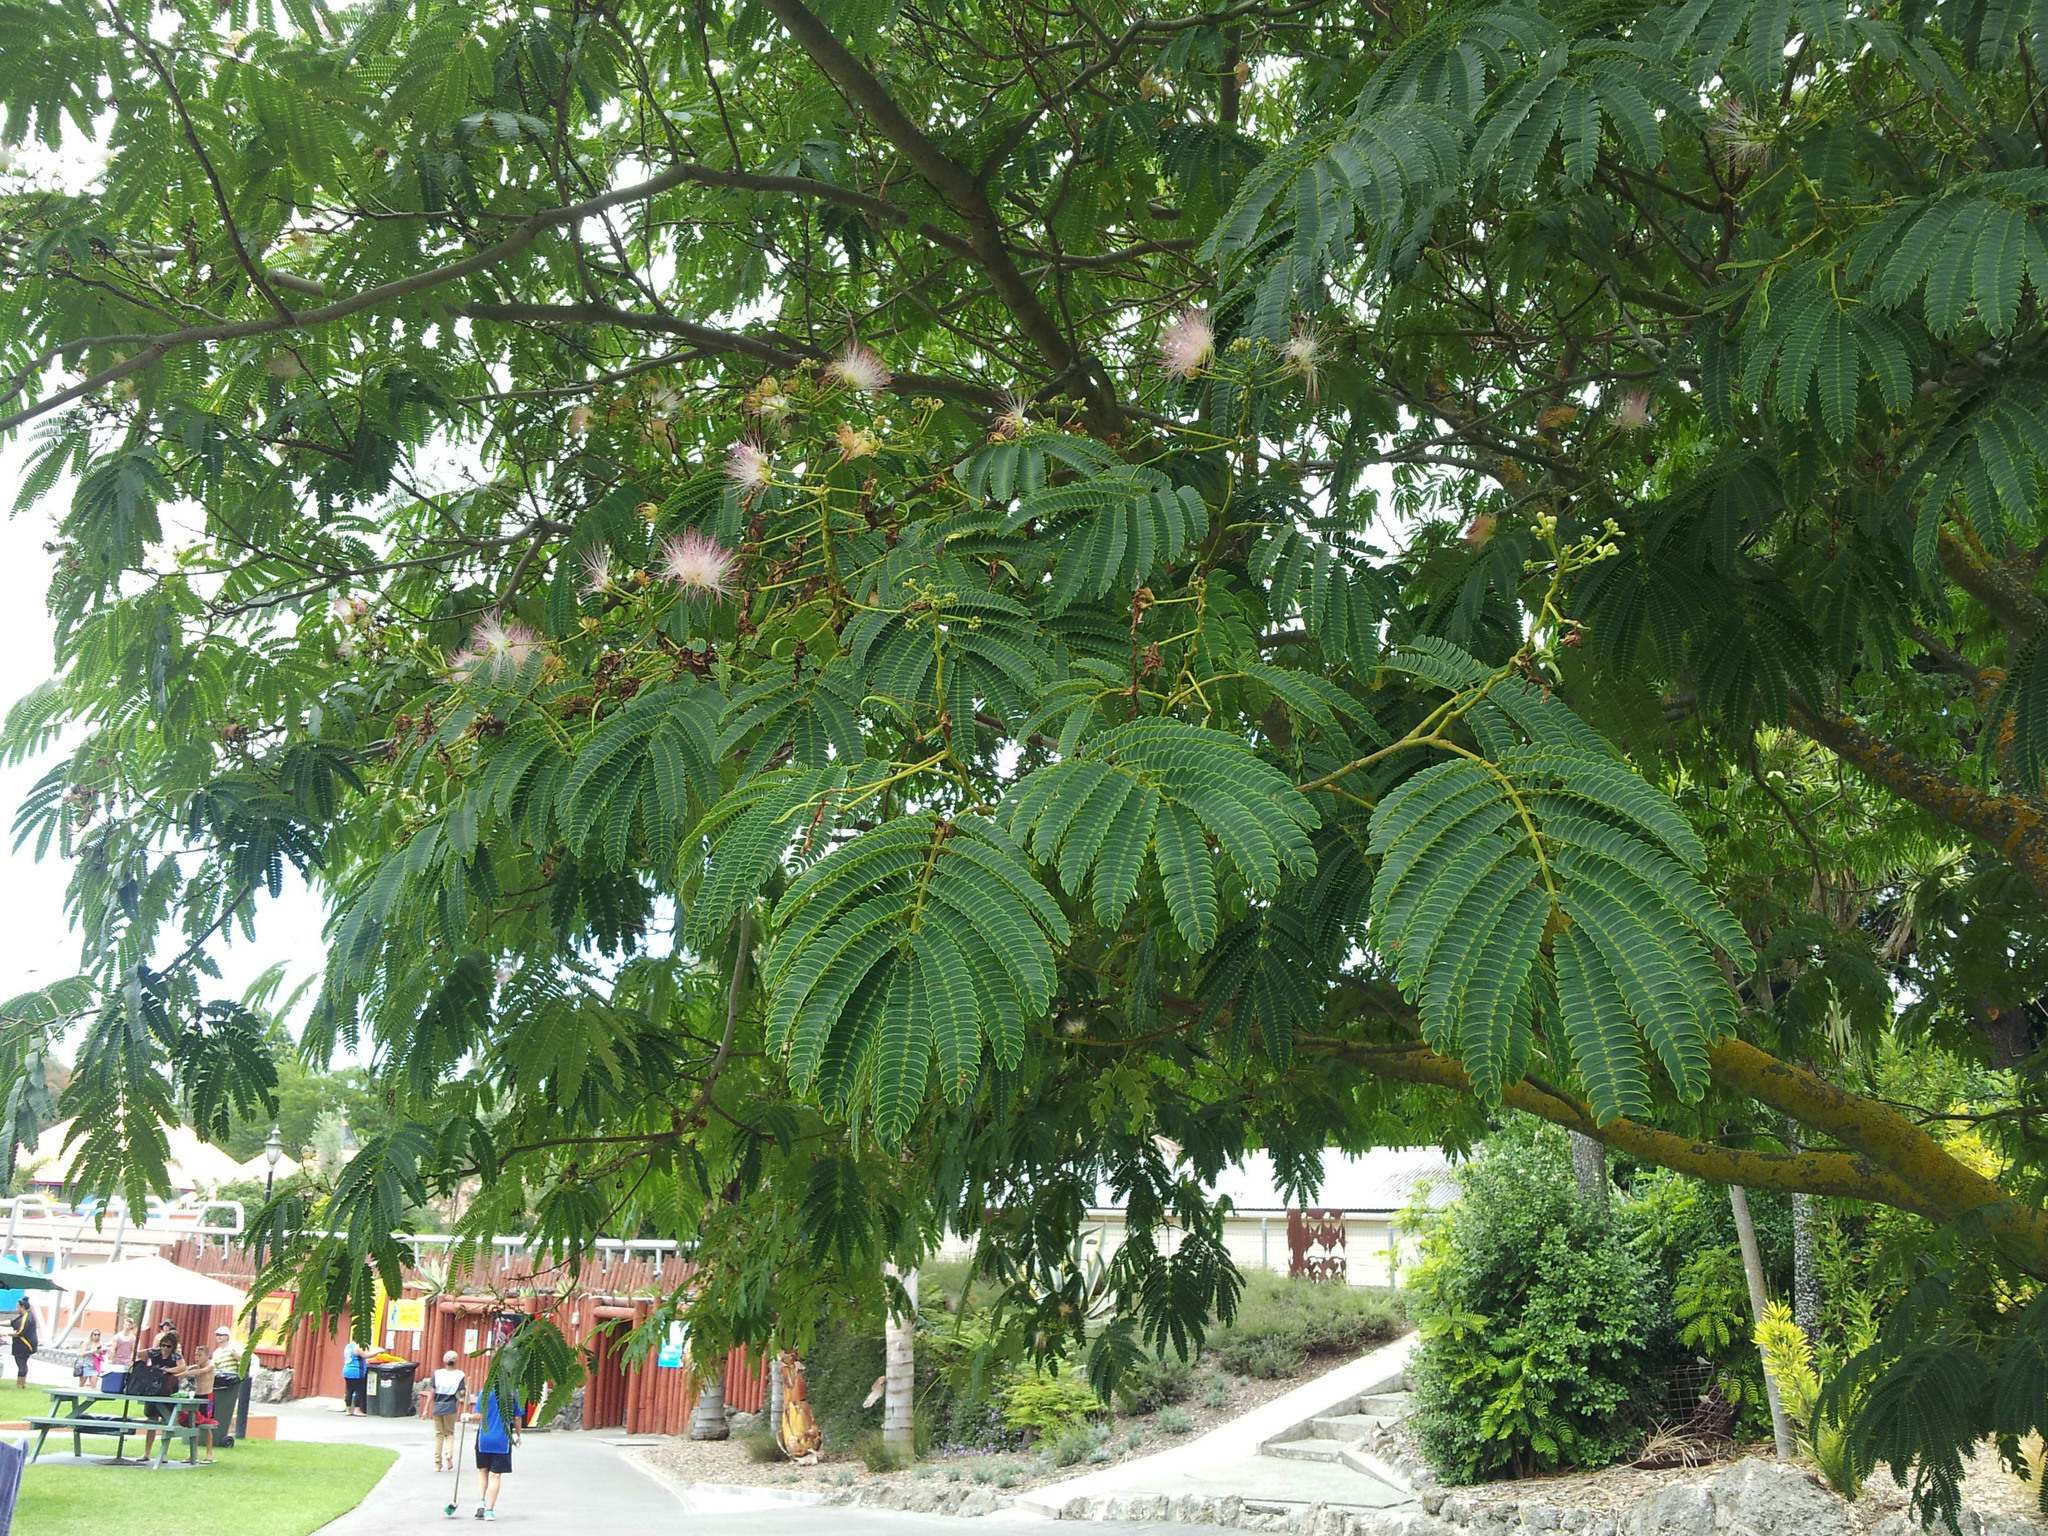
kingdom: Plantae
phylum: Tracheophyta
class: Magnoliopsida
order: Fabales
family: Fabaceae
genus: Albizia
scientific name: Albizia julibrissin
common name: Silktree
